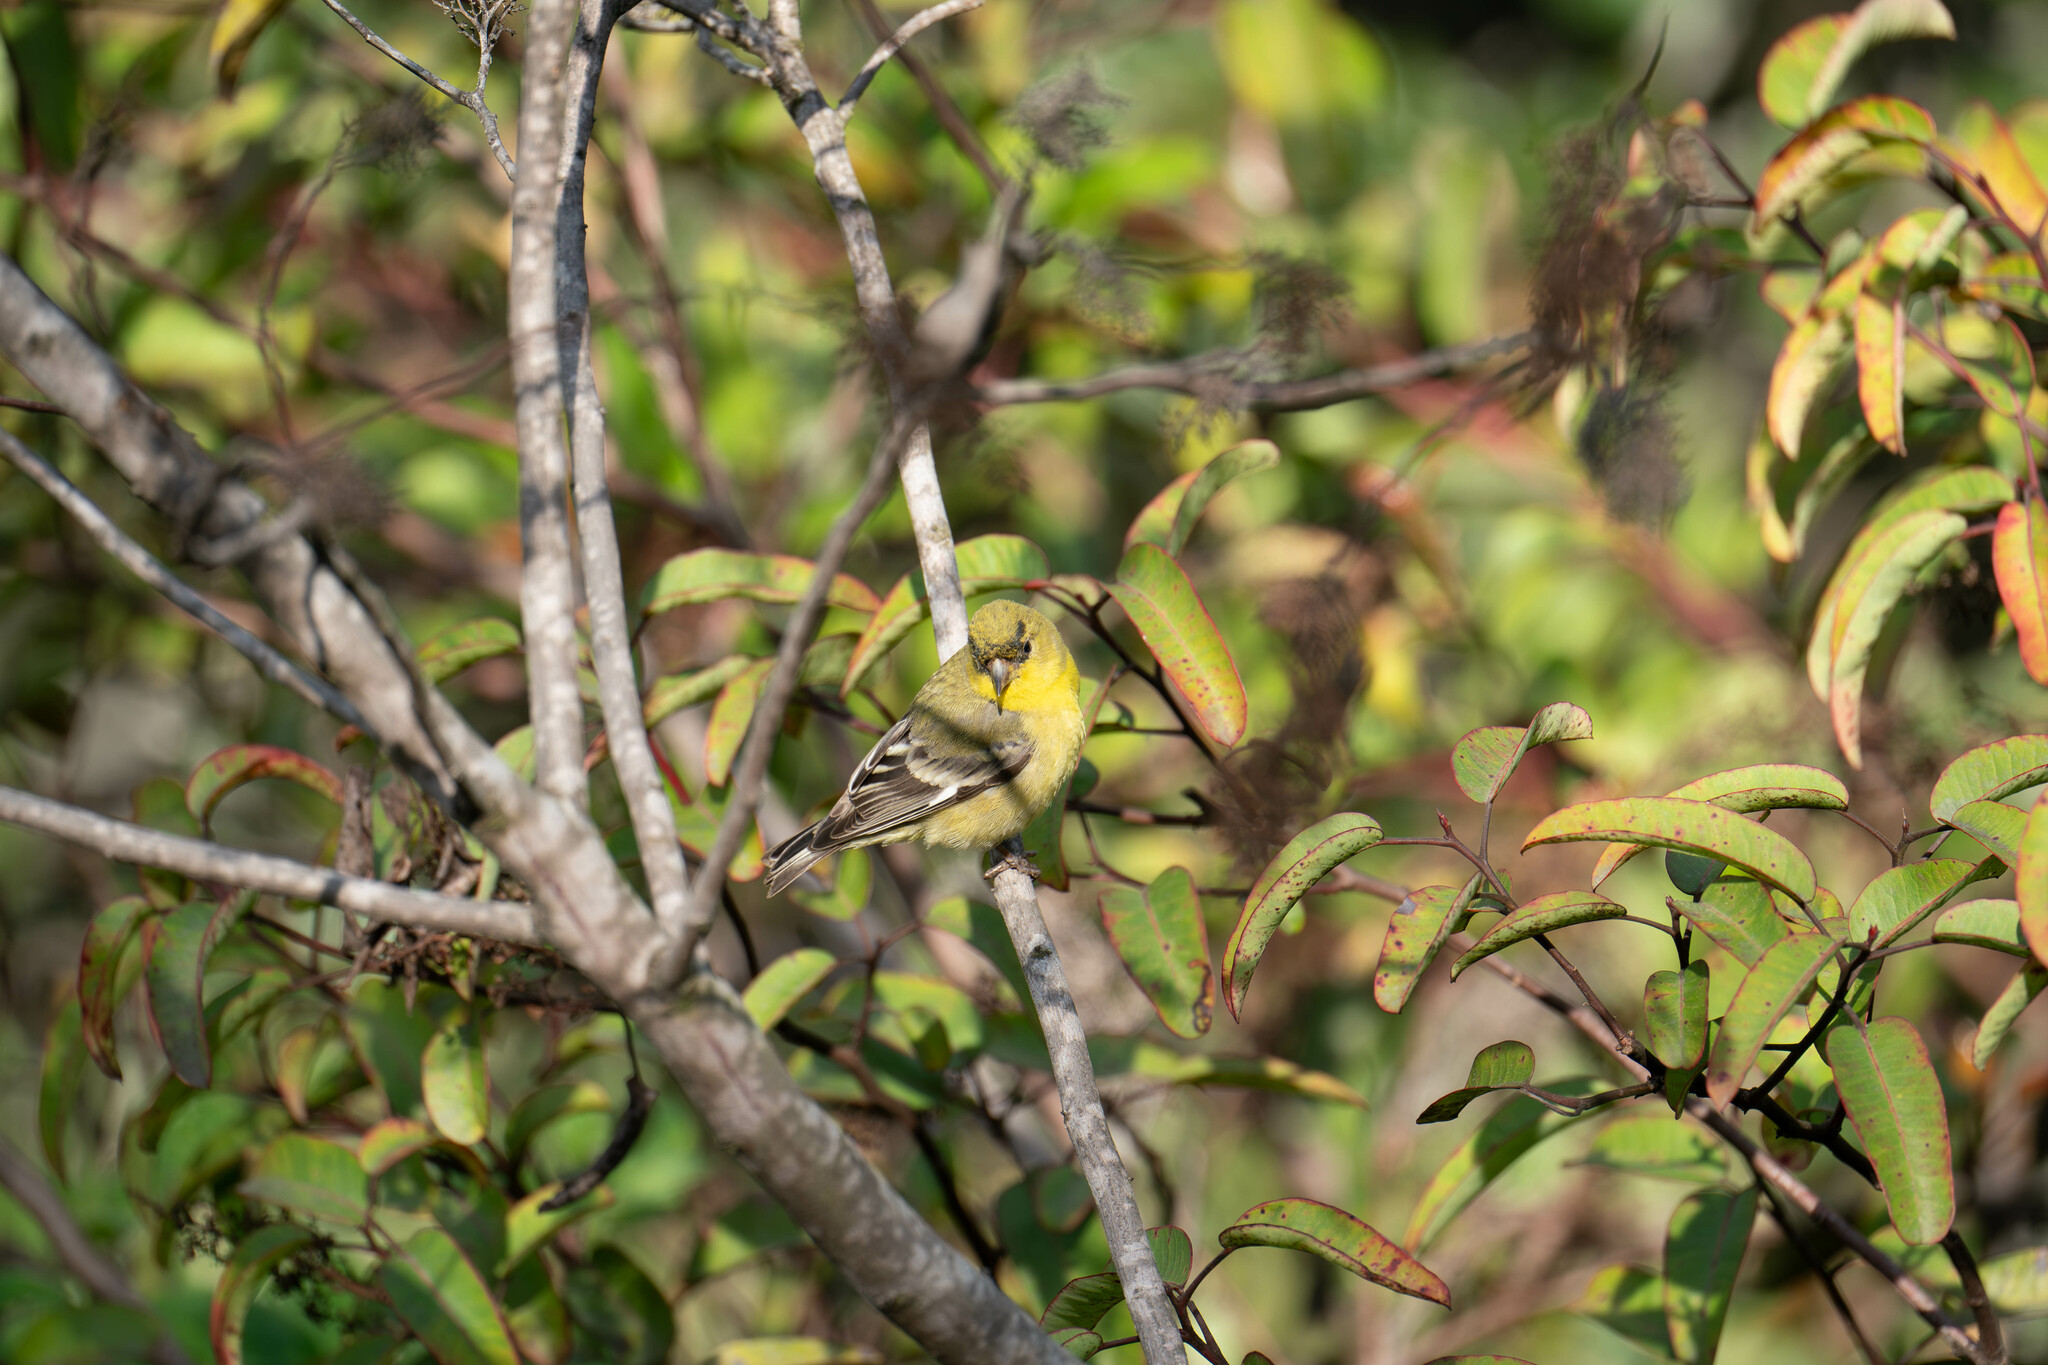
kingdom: Animalia
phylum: Chordata
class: Aves
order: Passeriformes
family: Fringillidae
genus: Spinus
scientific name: Spinus psaltria
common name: Lesser goldfinch
